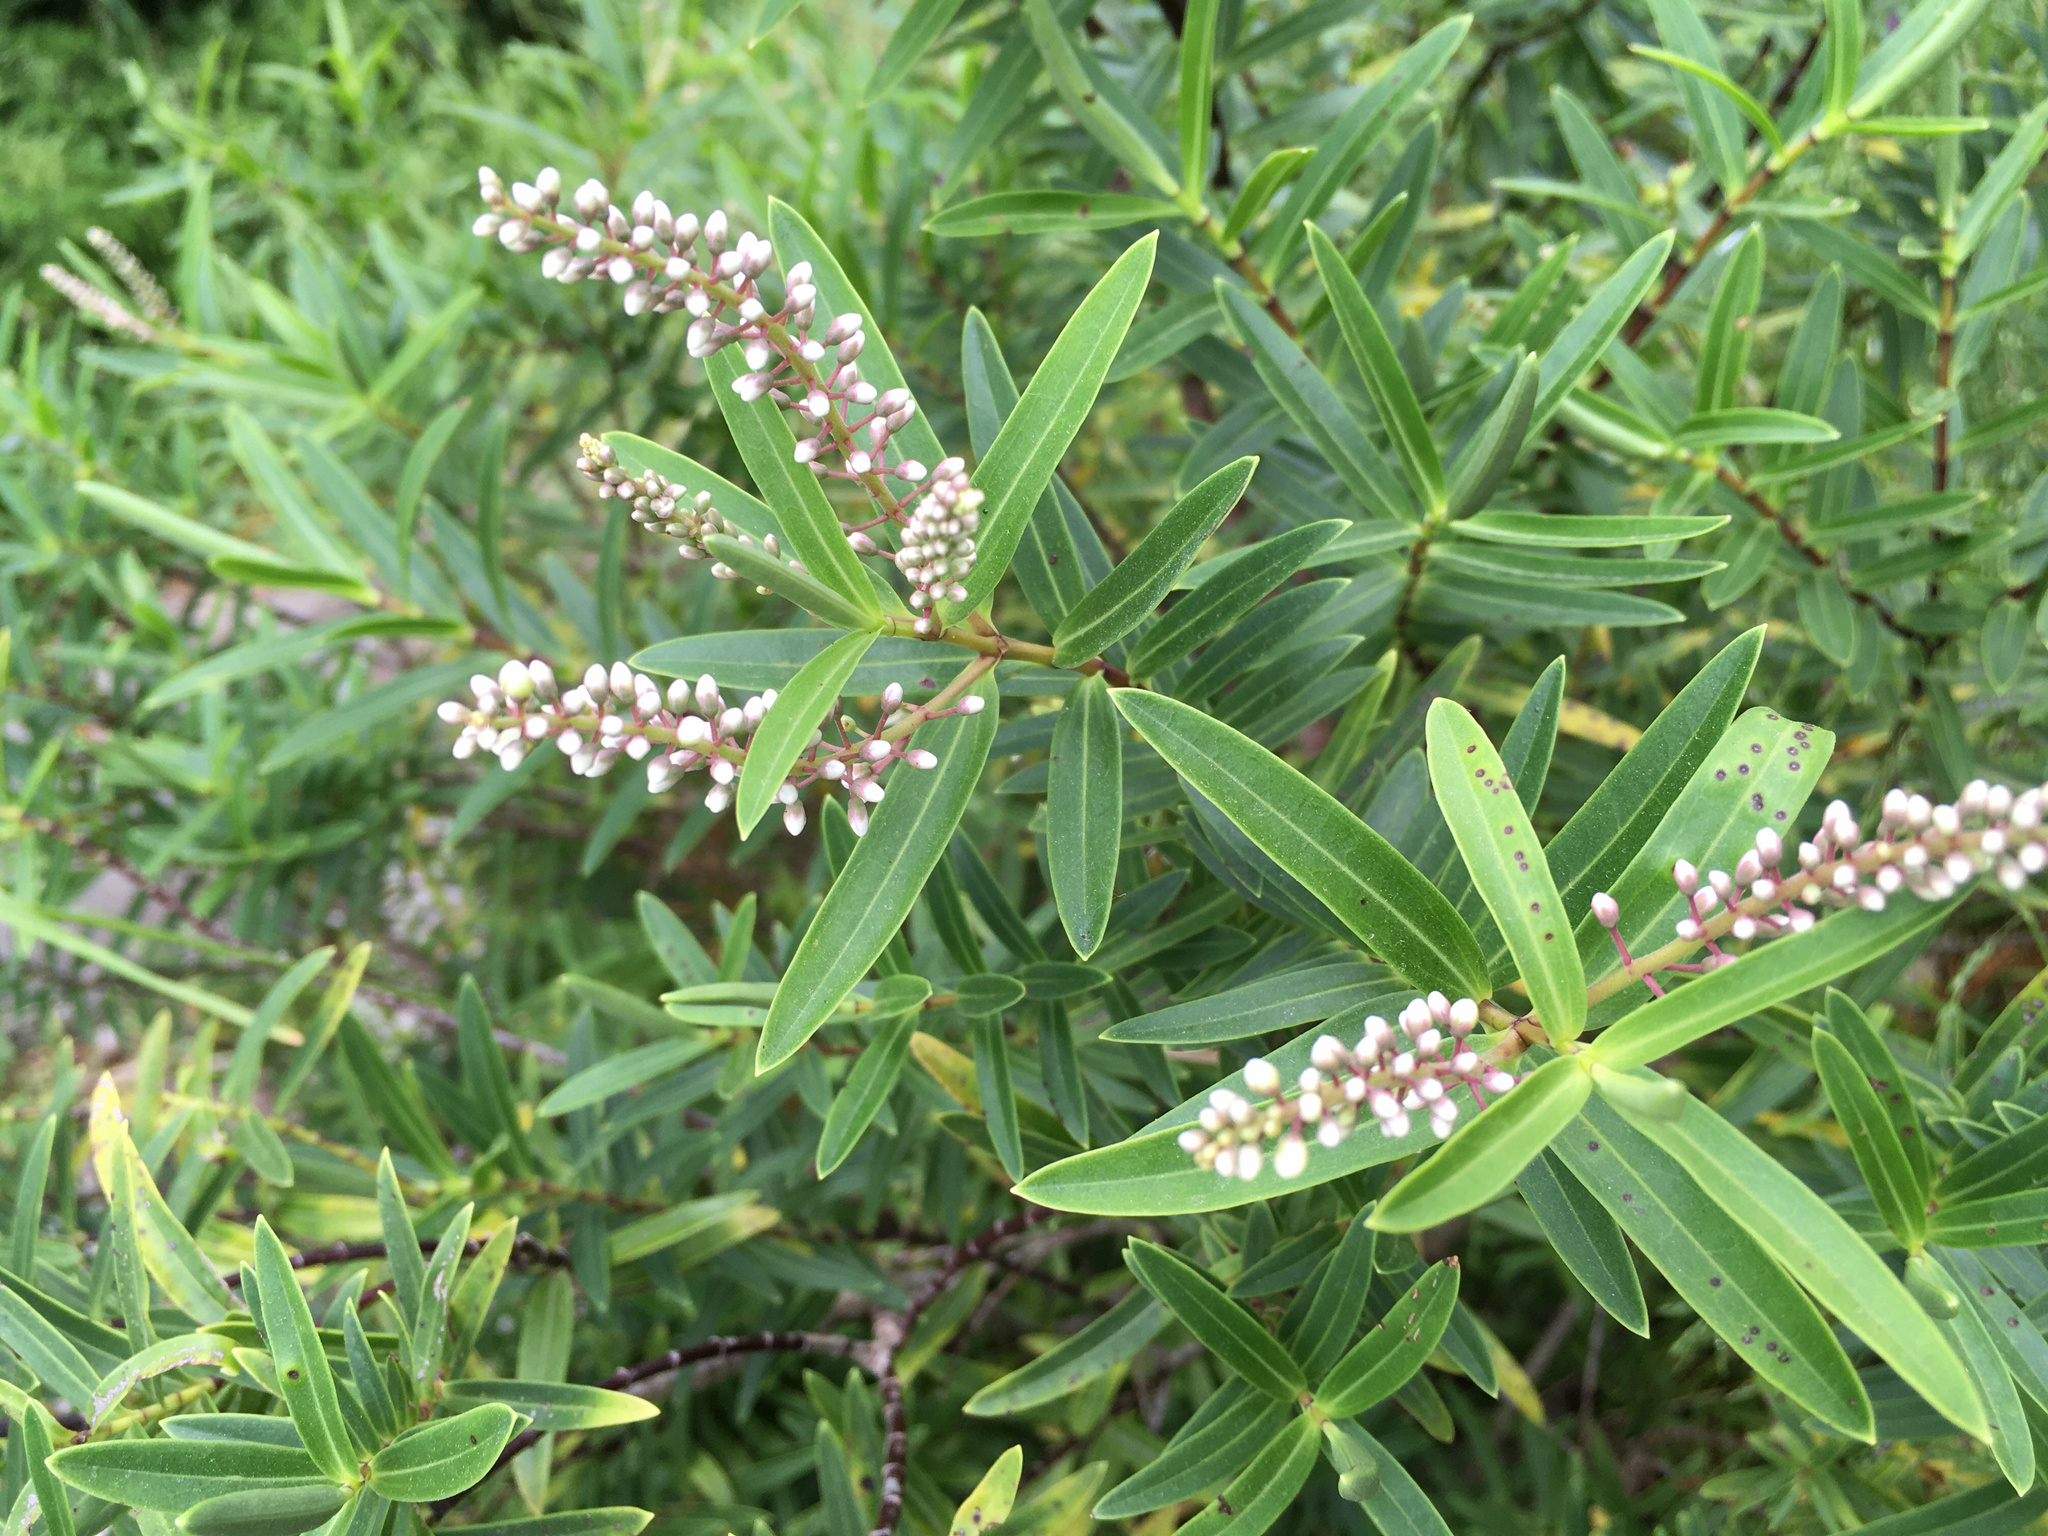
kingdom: Plantae
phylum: Tracheophyta
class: Magnoliopsida
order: Lamiales
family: Plantaginaceae
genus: Veronica
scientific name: Veronica strictissima
